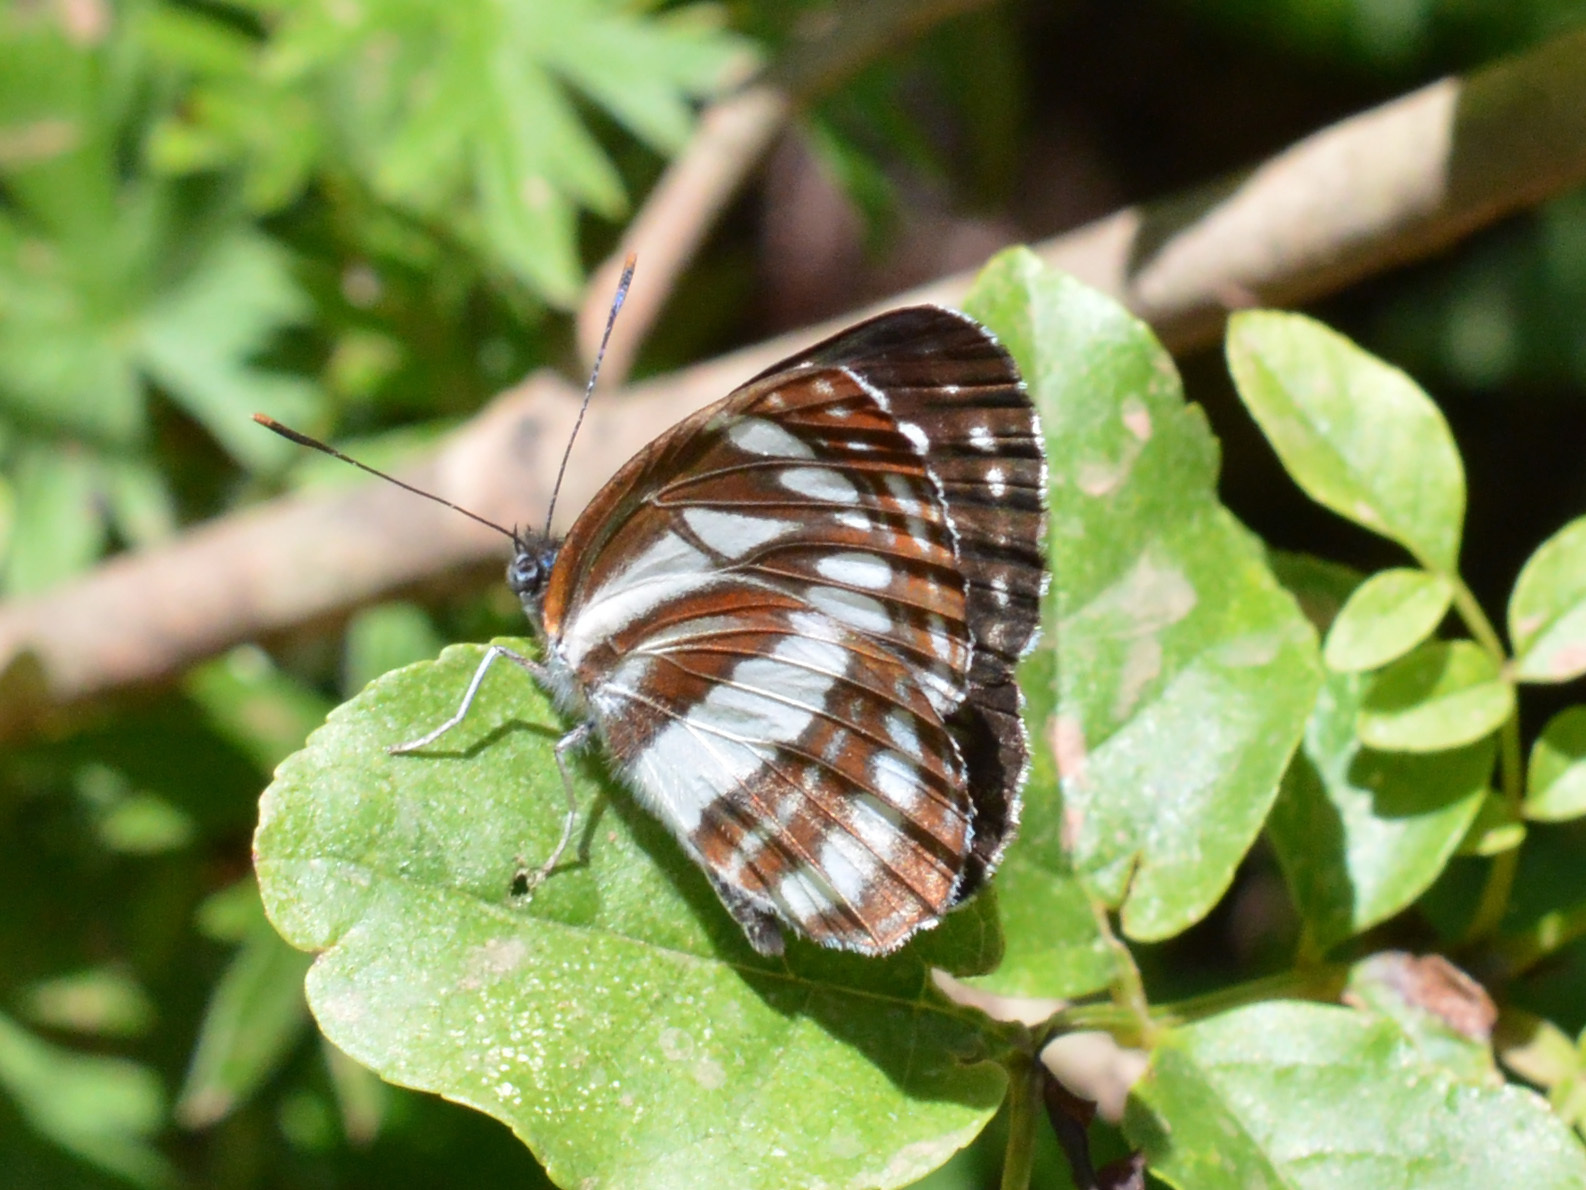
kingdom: Animalia
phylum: Arthropoda
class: Insecta
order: Lepidoptera
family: Nymphalidae
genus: Neptis
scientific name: Neptis sappho
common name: Common glider
